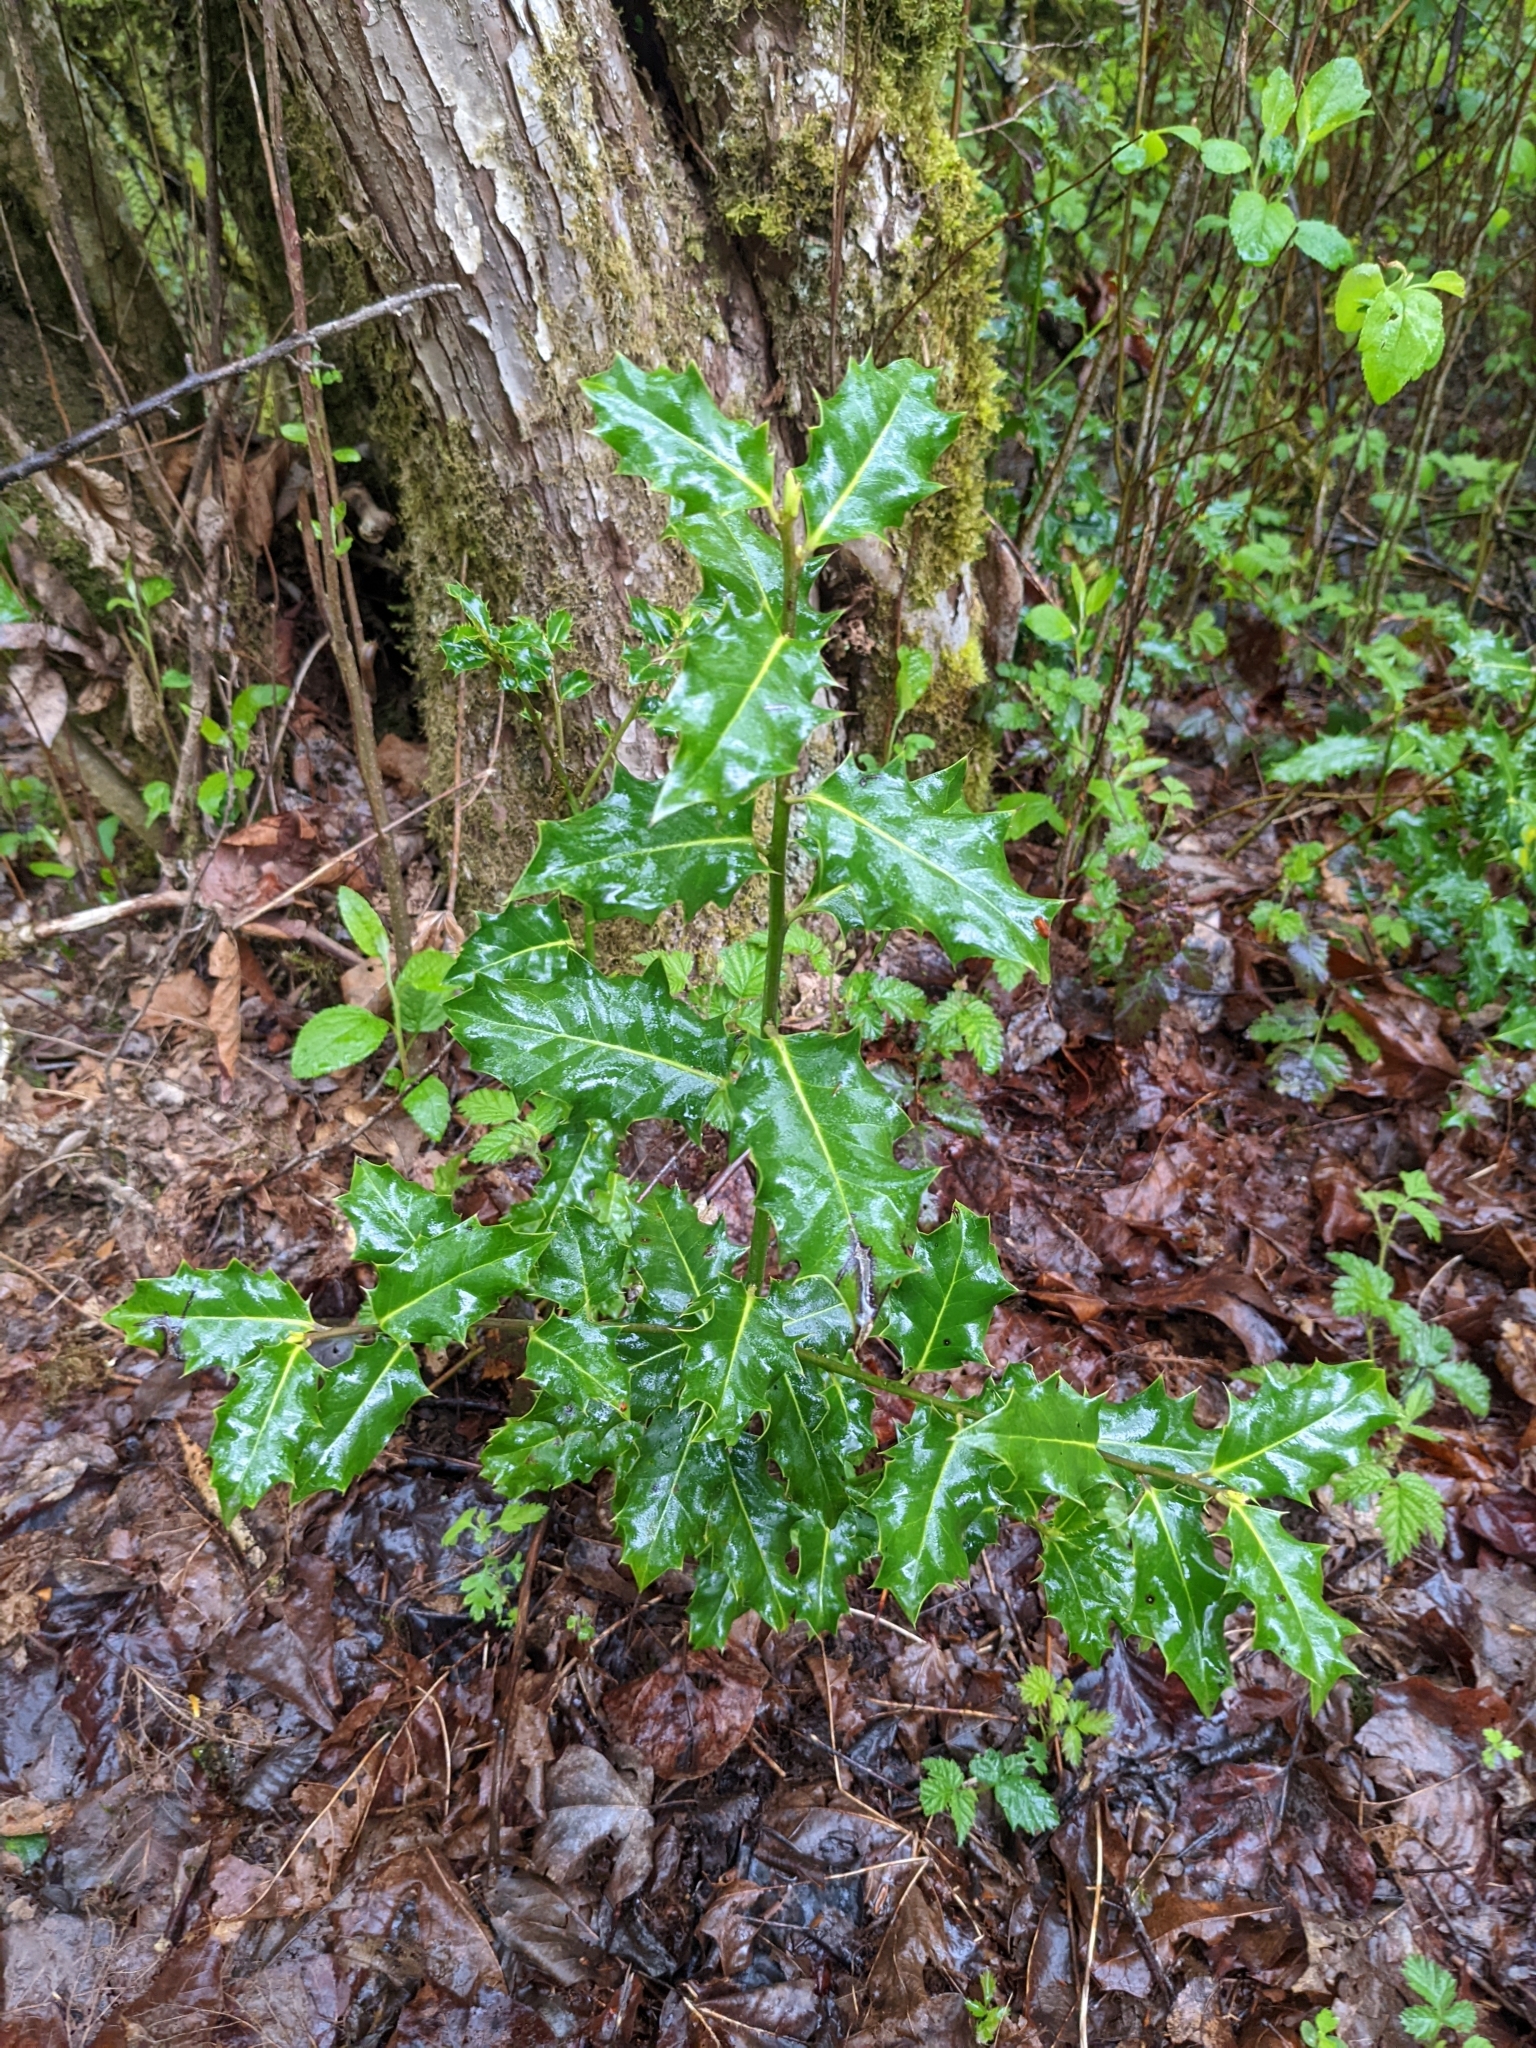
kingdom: Plantae
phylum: Tracheophyta
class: Magnoliopsida
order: Aquifoliales
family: Aquifoliaceae
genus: Ilex
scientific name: Ilex aquifolium
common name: English holly
